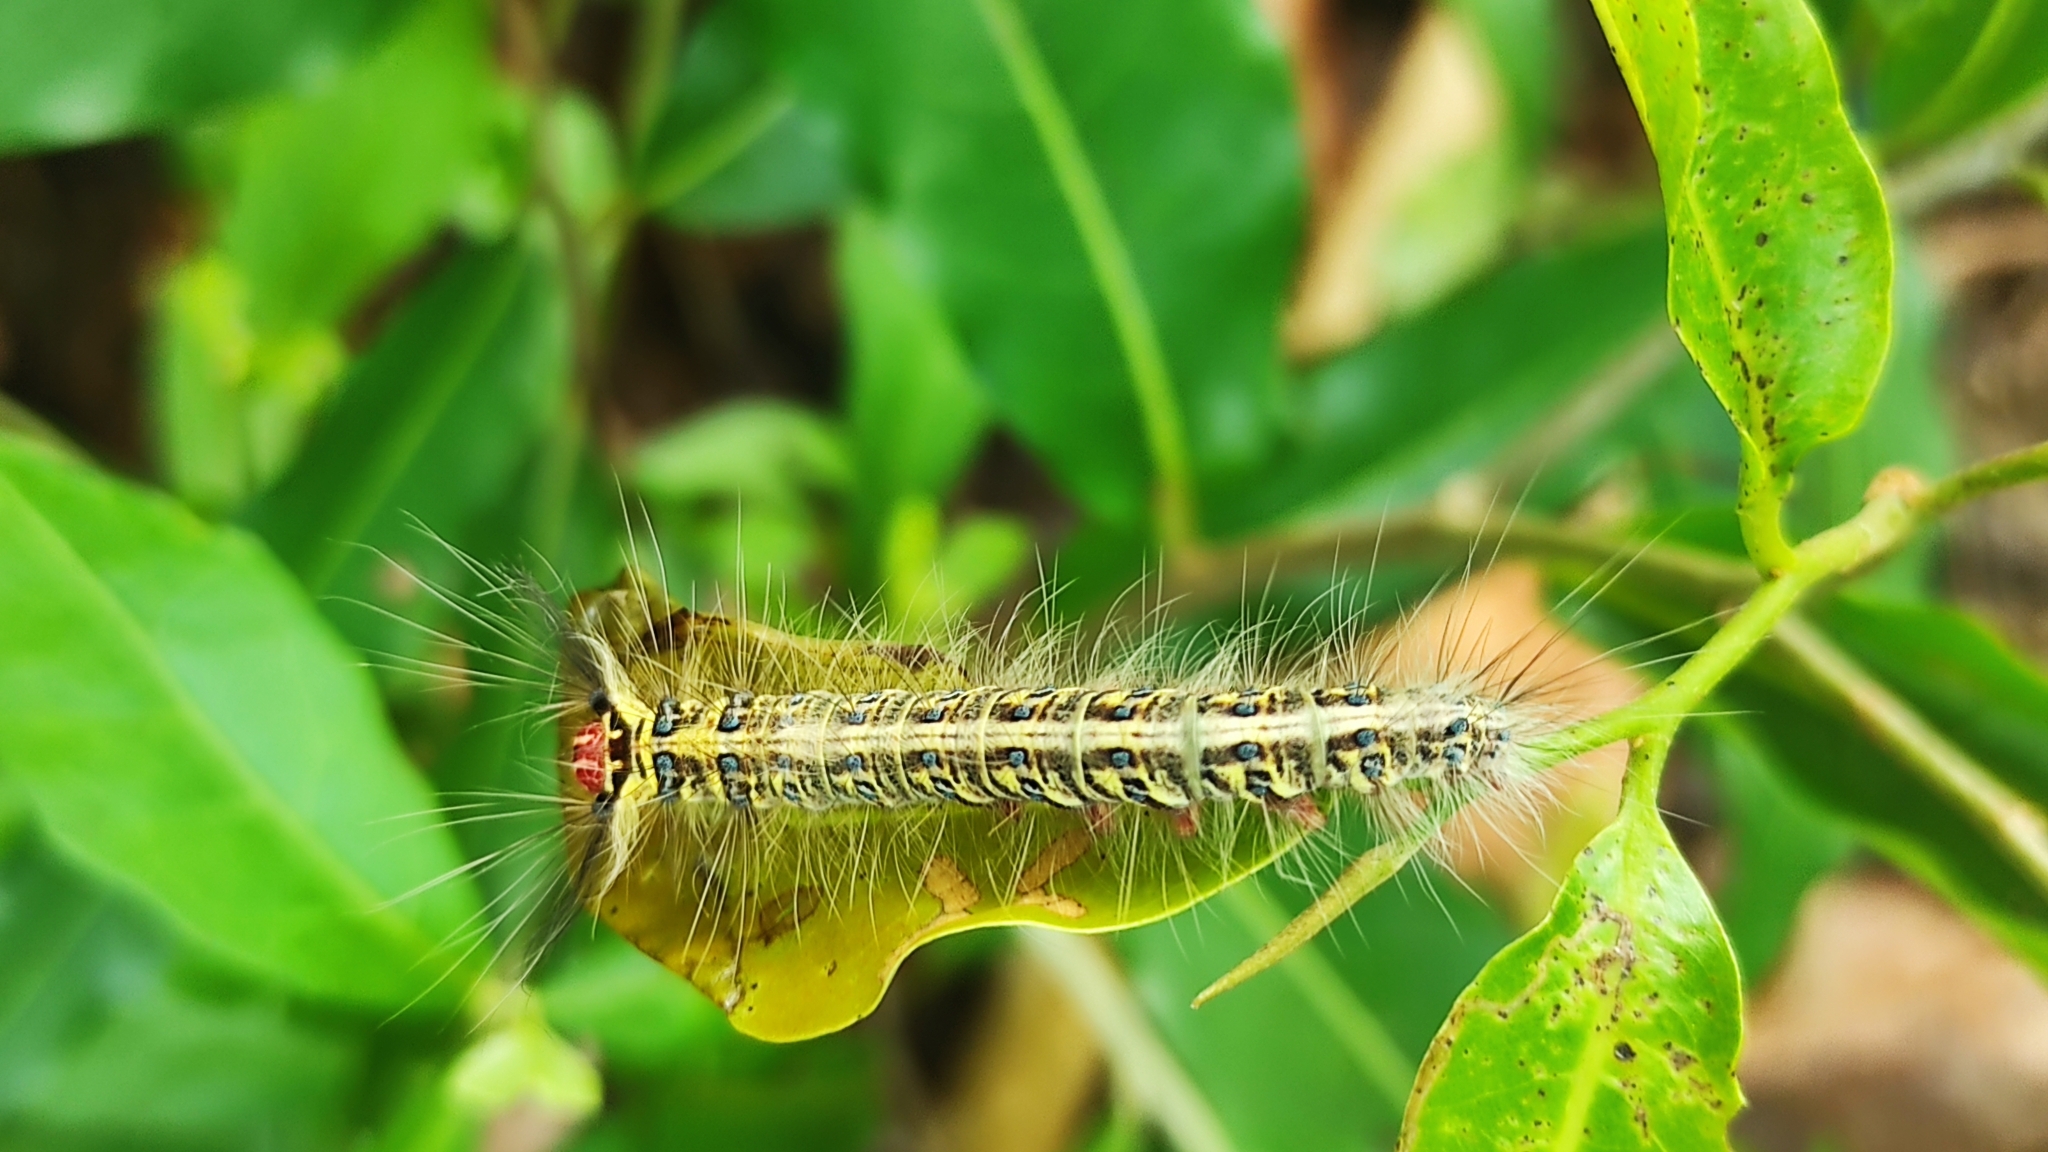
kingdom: Animalia
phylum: Arthropoda
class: Insecta
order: Lepidoptera
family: Lasiocampidae
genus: Trabala
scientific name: Trabala vishnou
